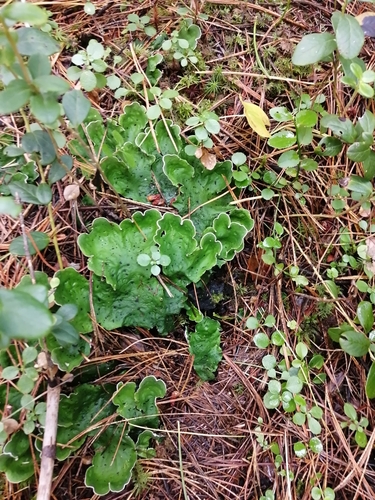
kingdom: Fungi
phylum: Ascomycota
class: Lecanoromycetes
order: Peltigerales
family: Peltigeraceae
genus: Peltigera
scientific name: Peltigera aphthosa
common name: Common freckle pelt lichen
